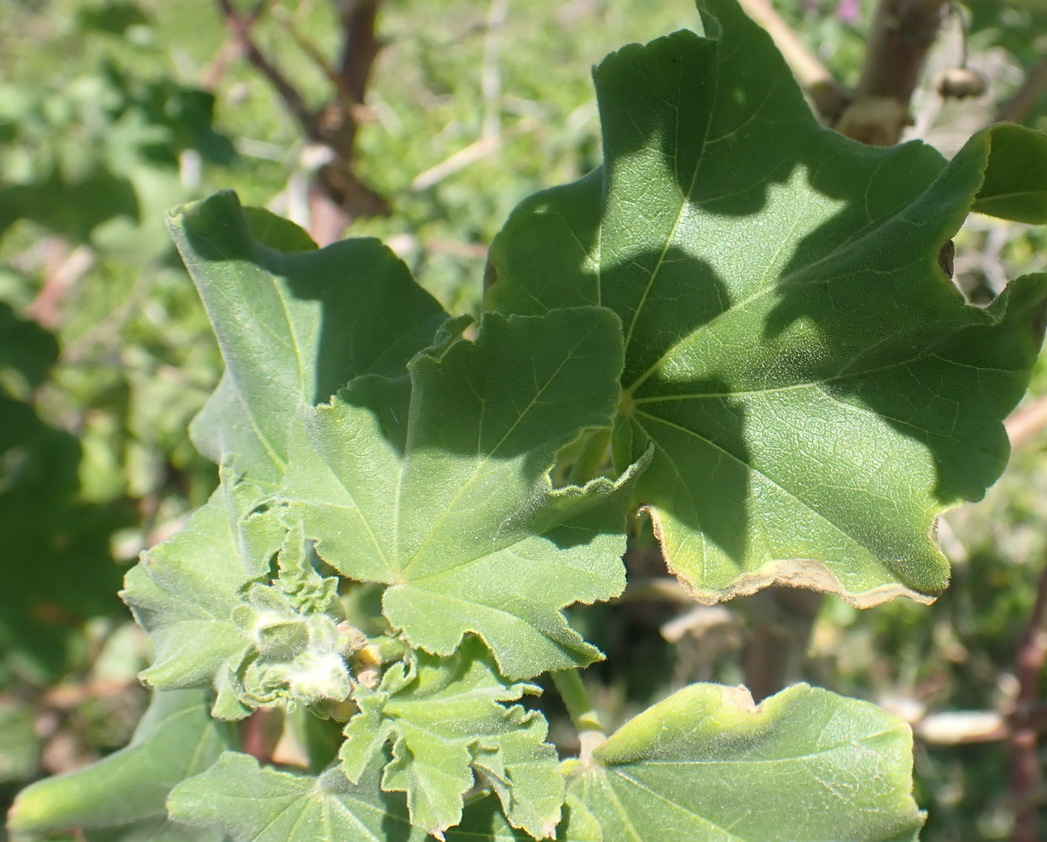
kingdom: Plantae
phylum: Tracheophyta
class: Magnoliopsida
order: Malvales
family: Malvaceae
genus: Malva
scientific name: Malva arborea
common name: Tree mallow
